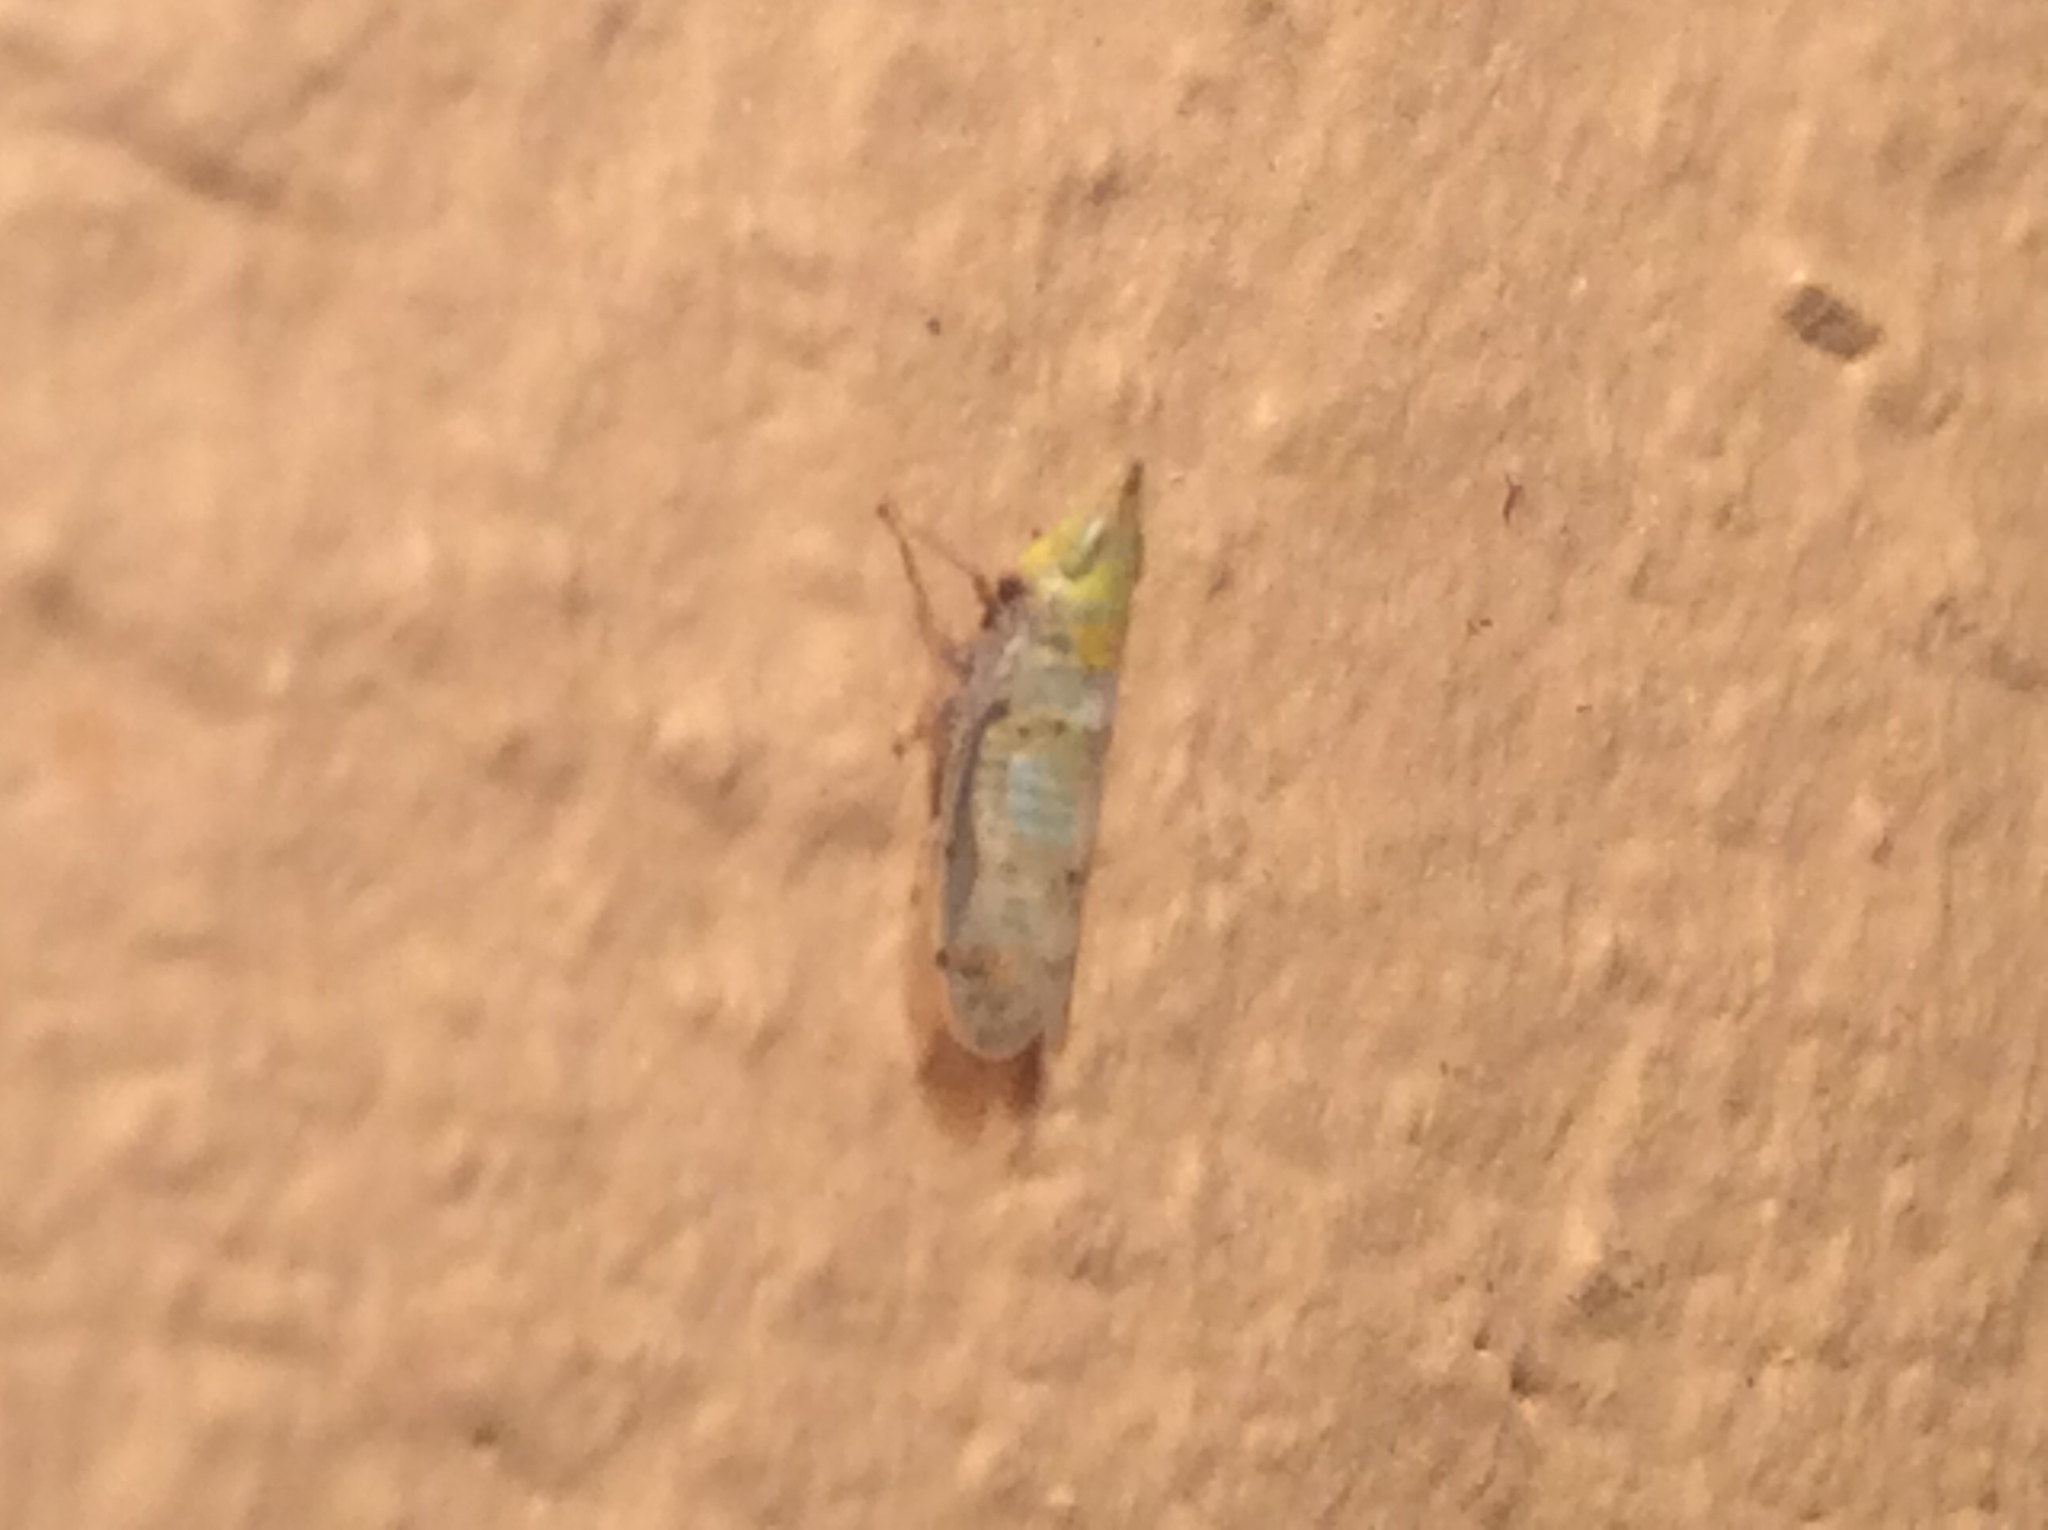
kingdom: Animalia
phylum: Arthropoda
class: Insecta
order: Hemiptera
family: Cicadellidae
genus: Japananus
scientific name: Japananus hyalinus
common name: The japanese maple leafhopper
